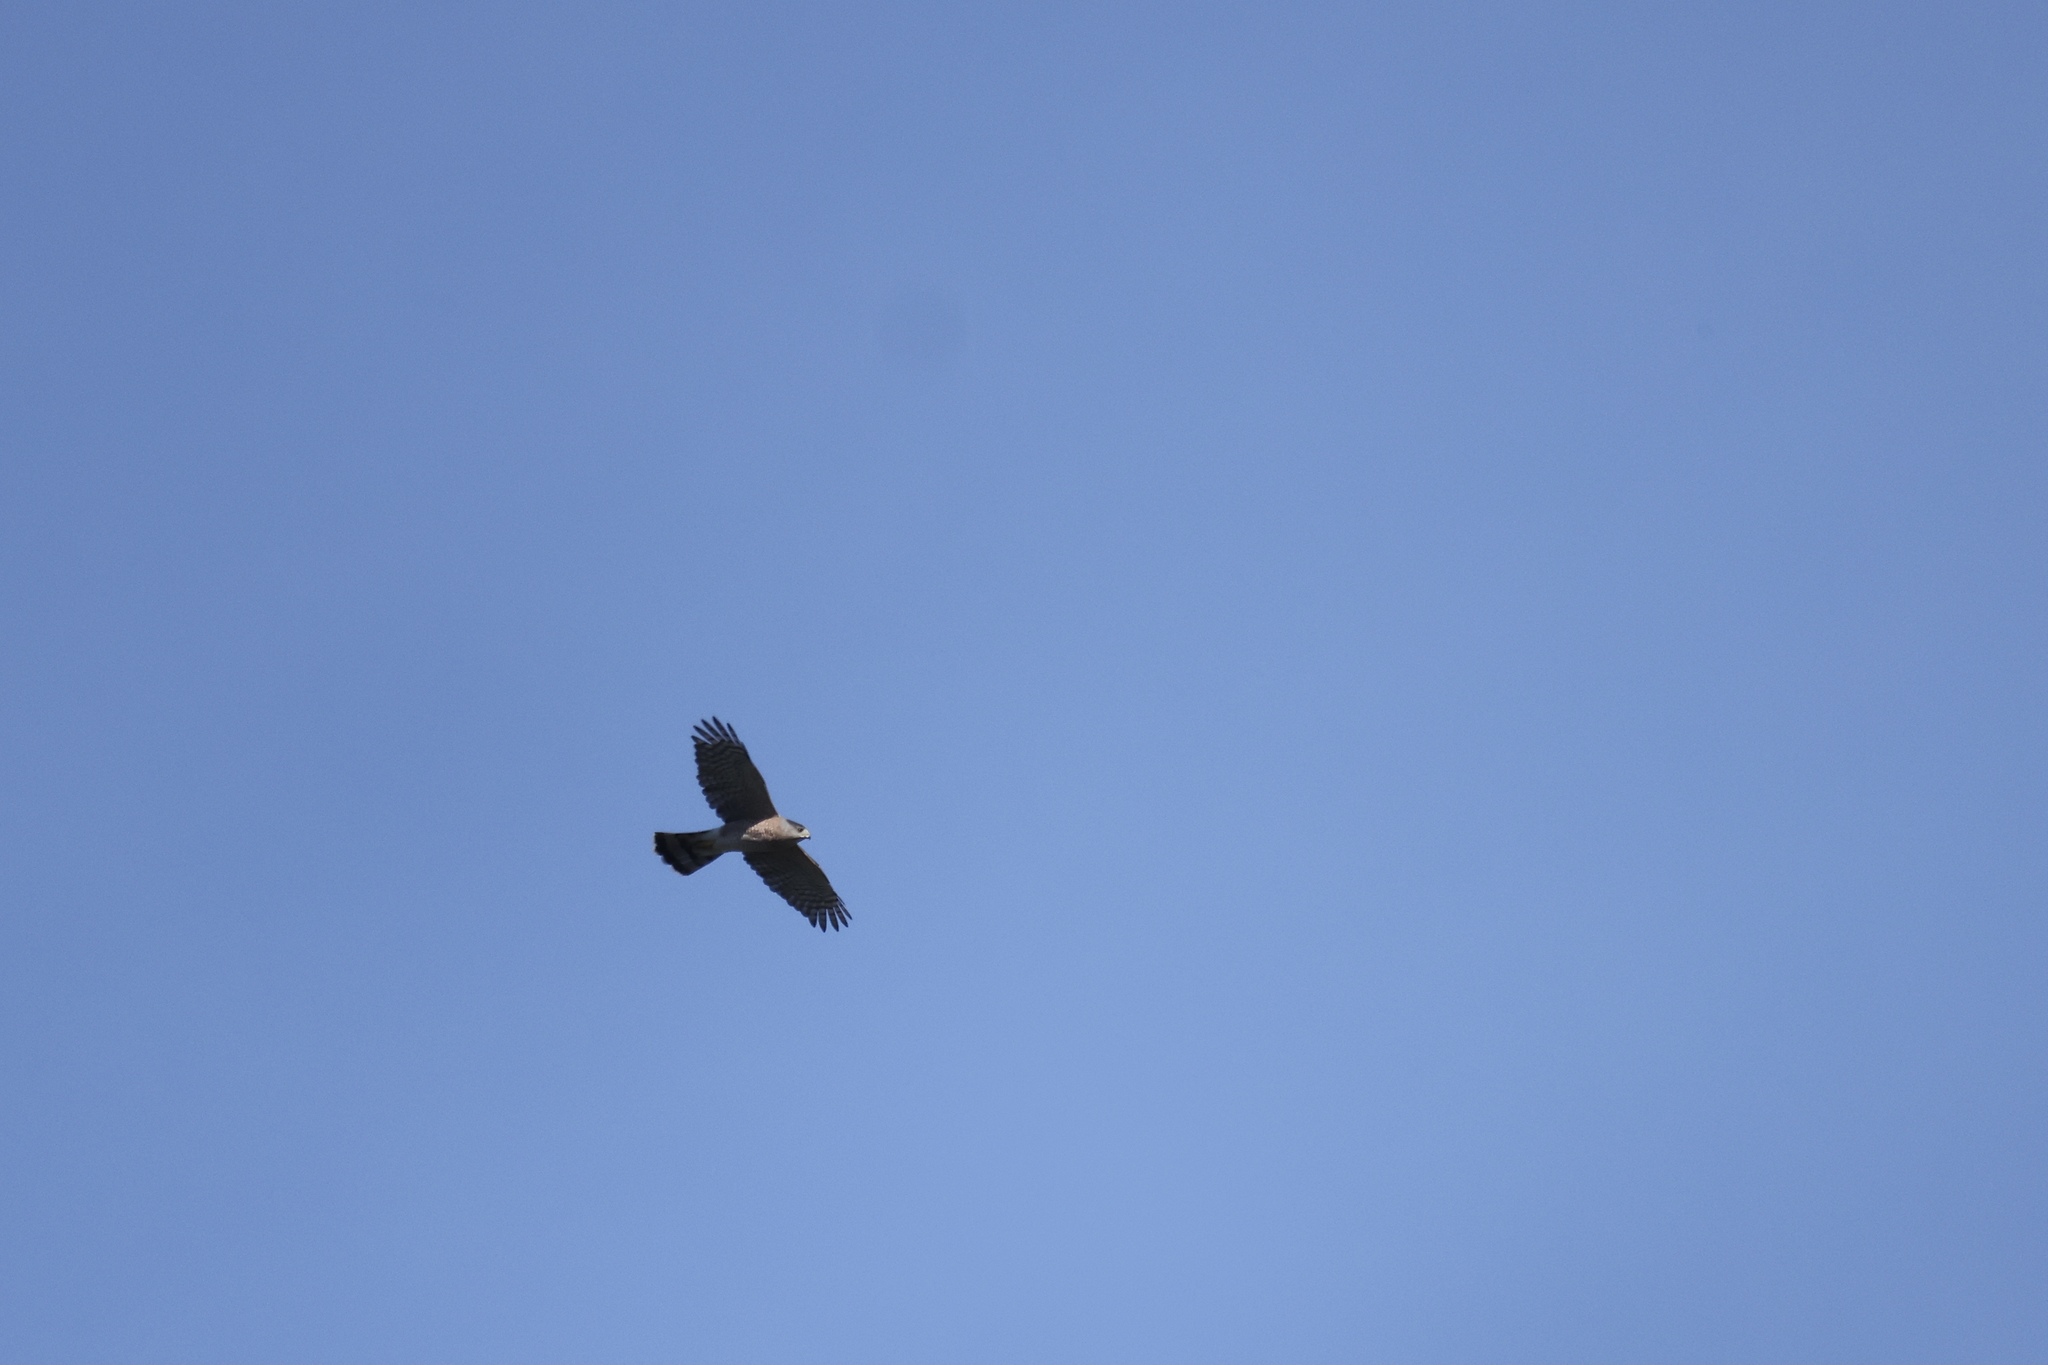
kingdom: Animalia
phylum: Chordata
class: Aves
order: Accipitriformes
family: Accipitridae
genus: Accipiter
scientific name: Accipiter cooperii
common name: Cooper's hawk
